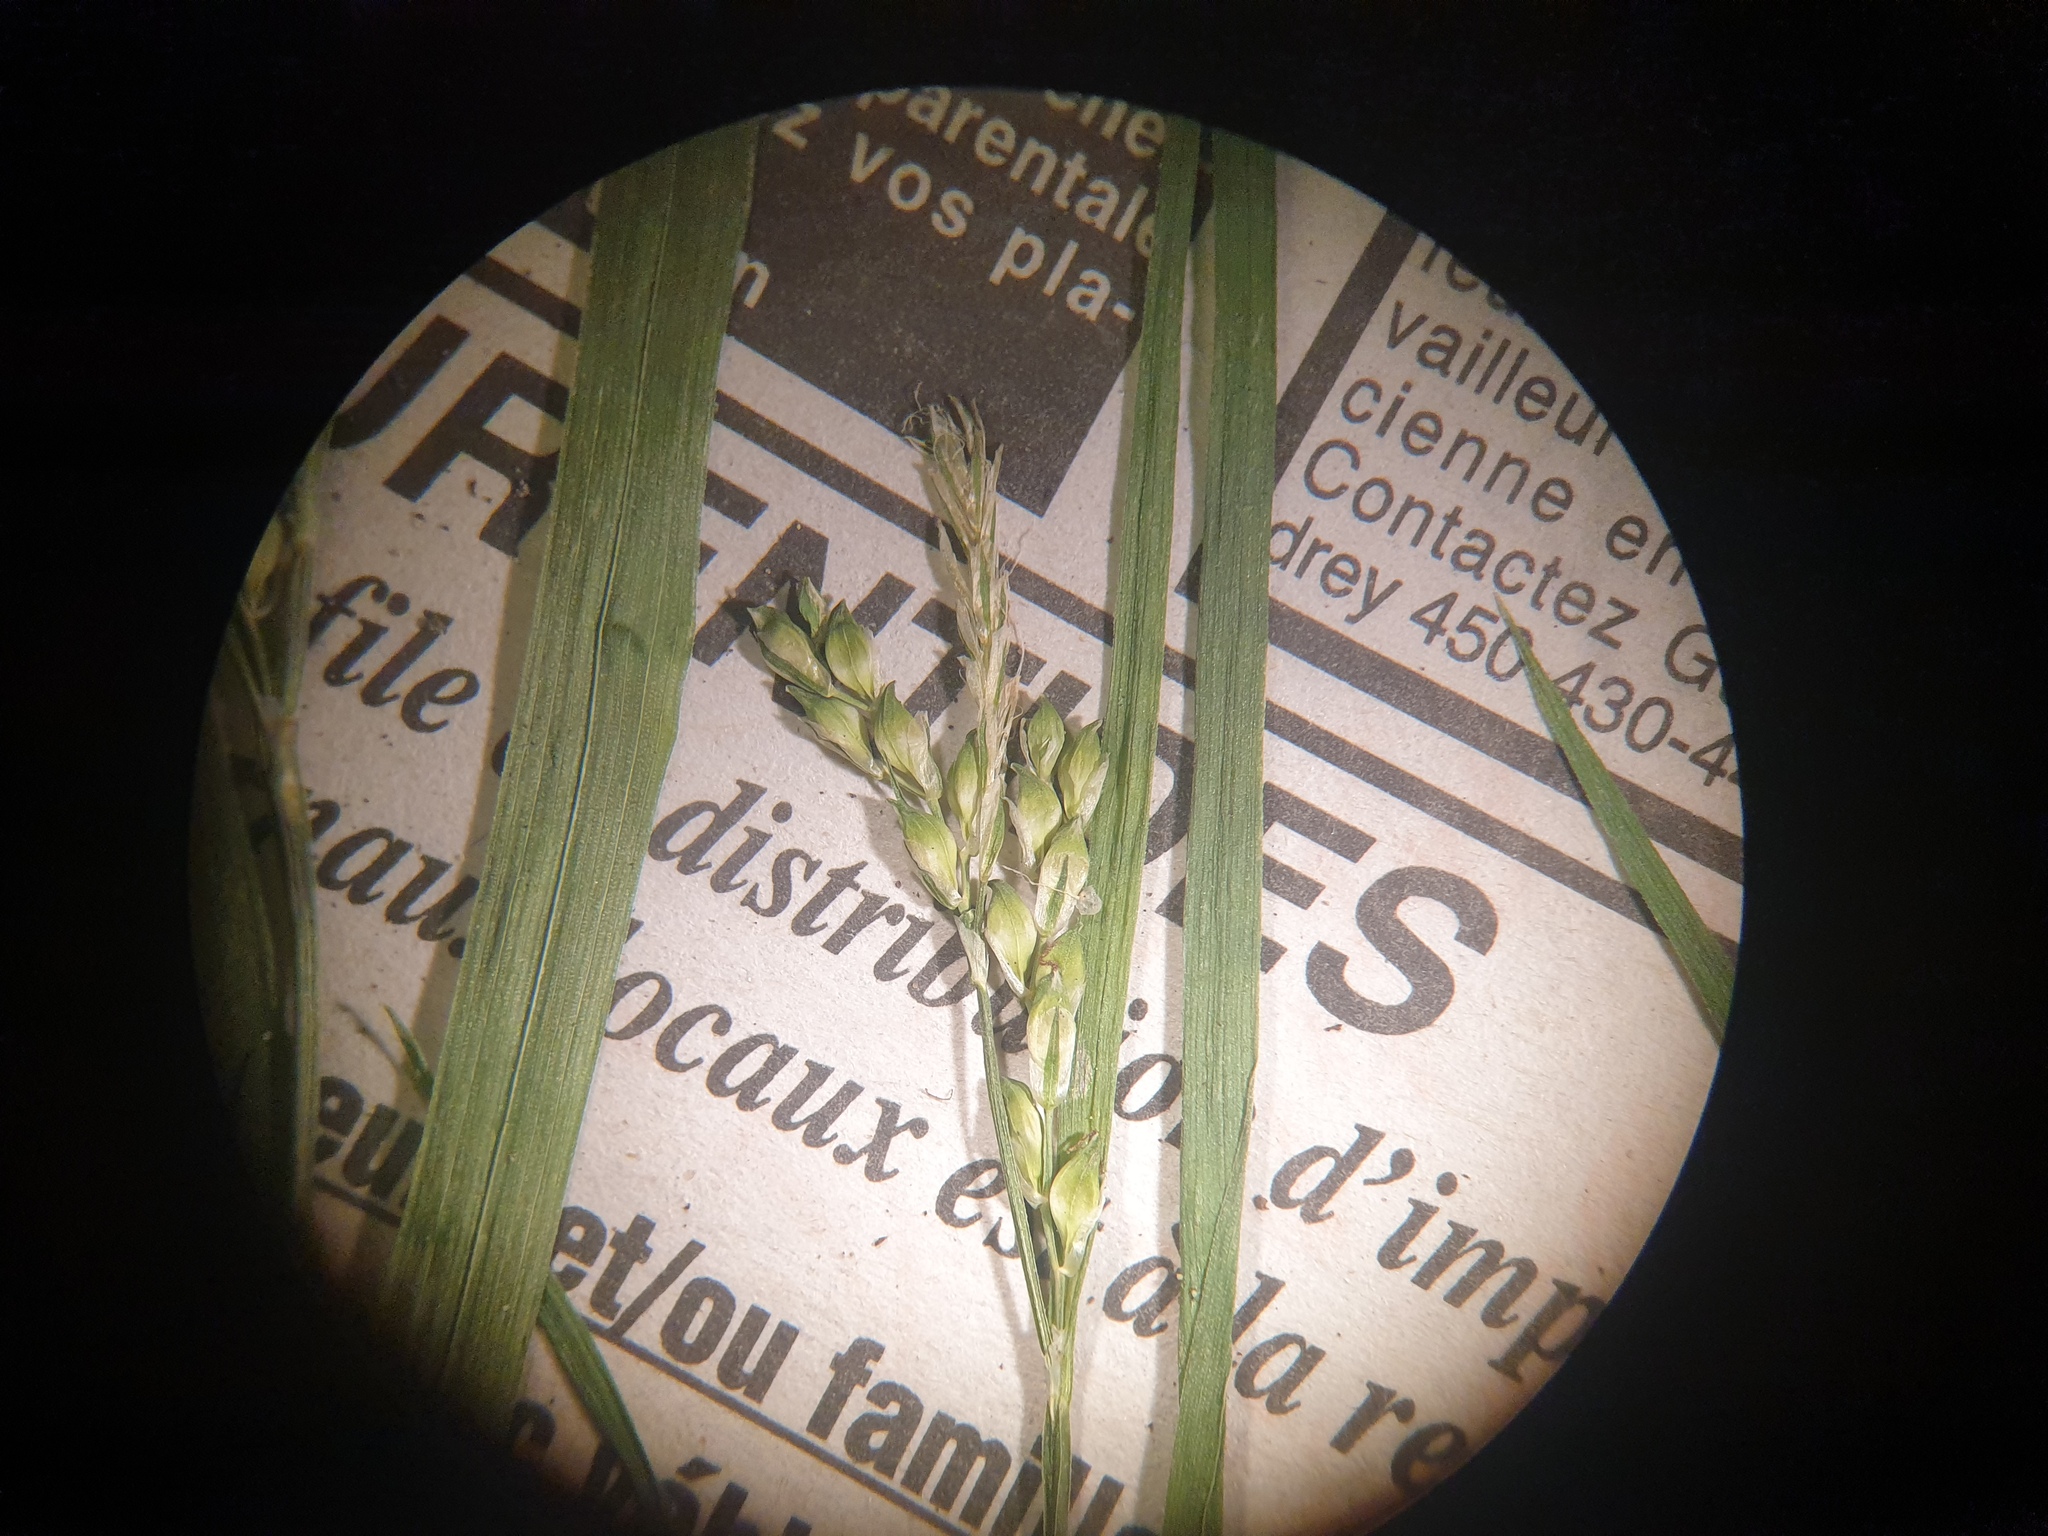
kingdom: Plantae
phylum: Tracheophyta
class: Liliopsida
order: Poales
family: Cyperaceae
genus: Carex
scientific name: Carex leptonervia
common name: Few-nerved wood sedge
